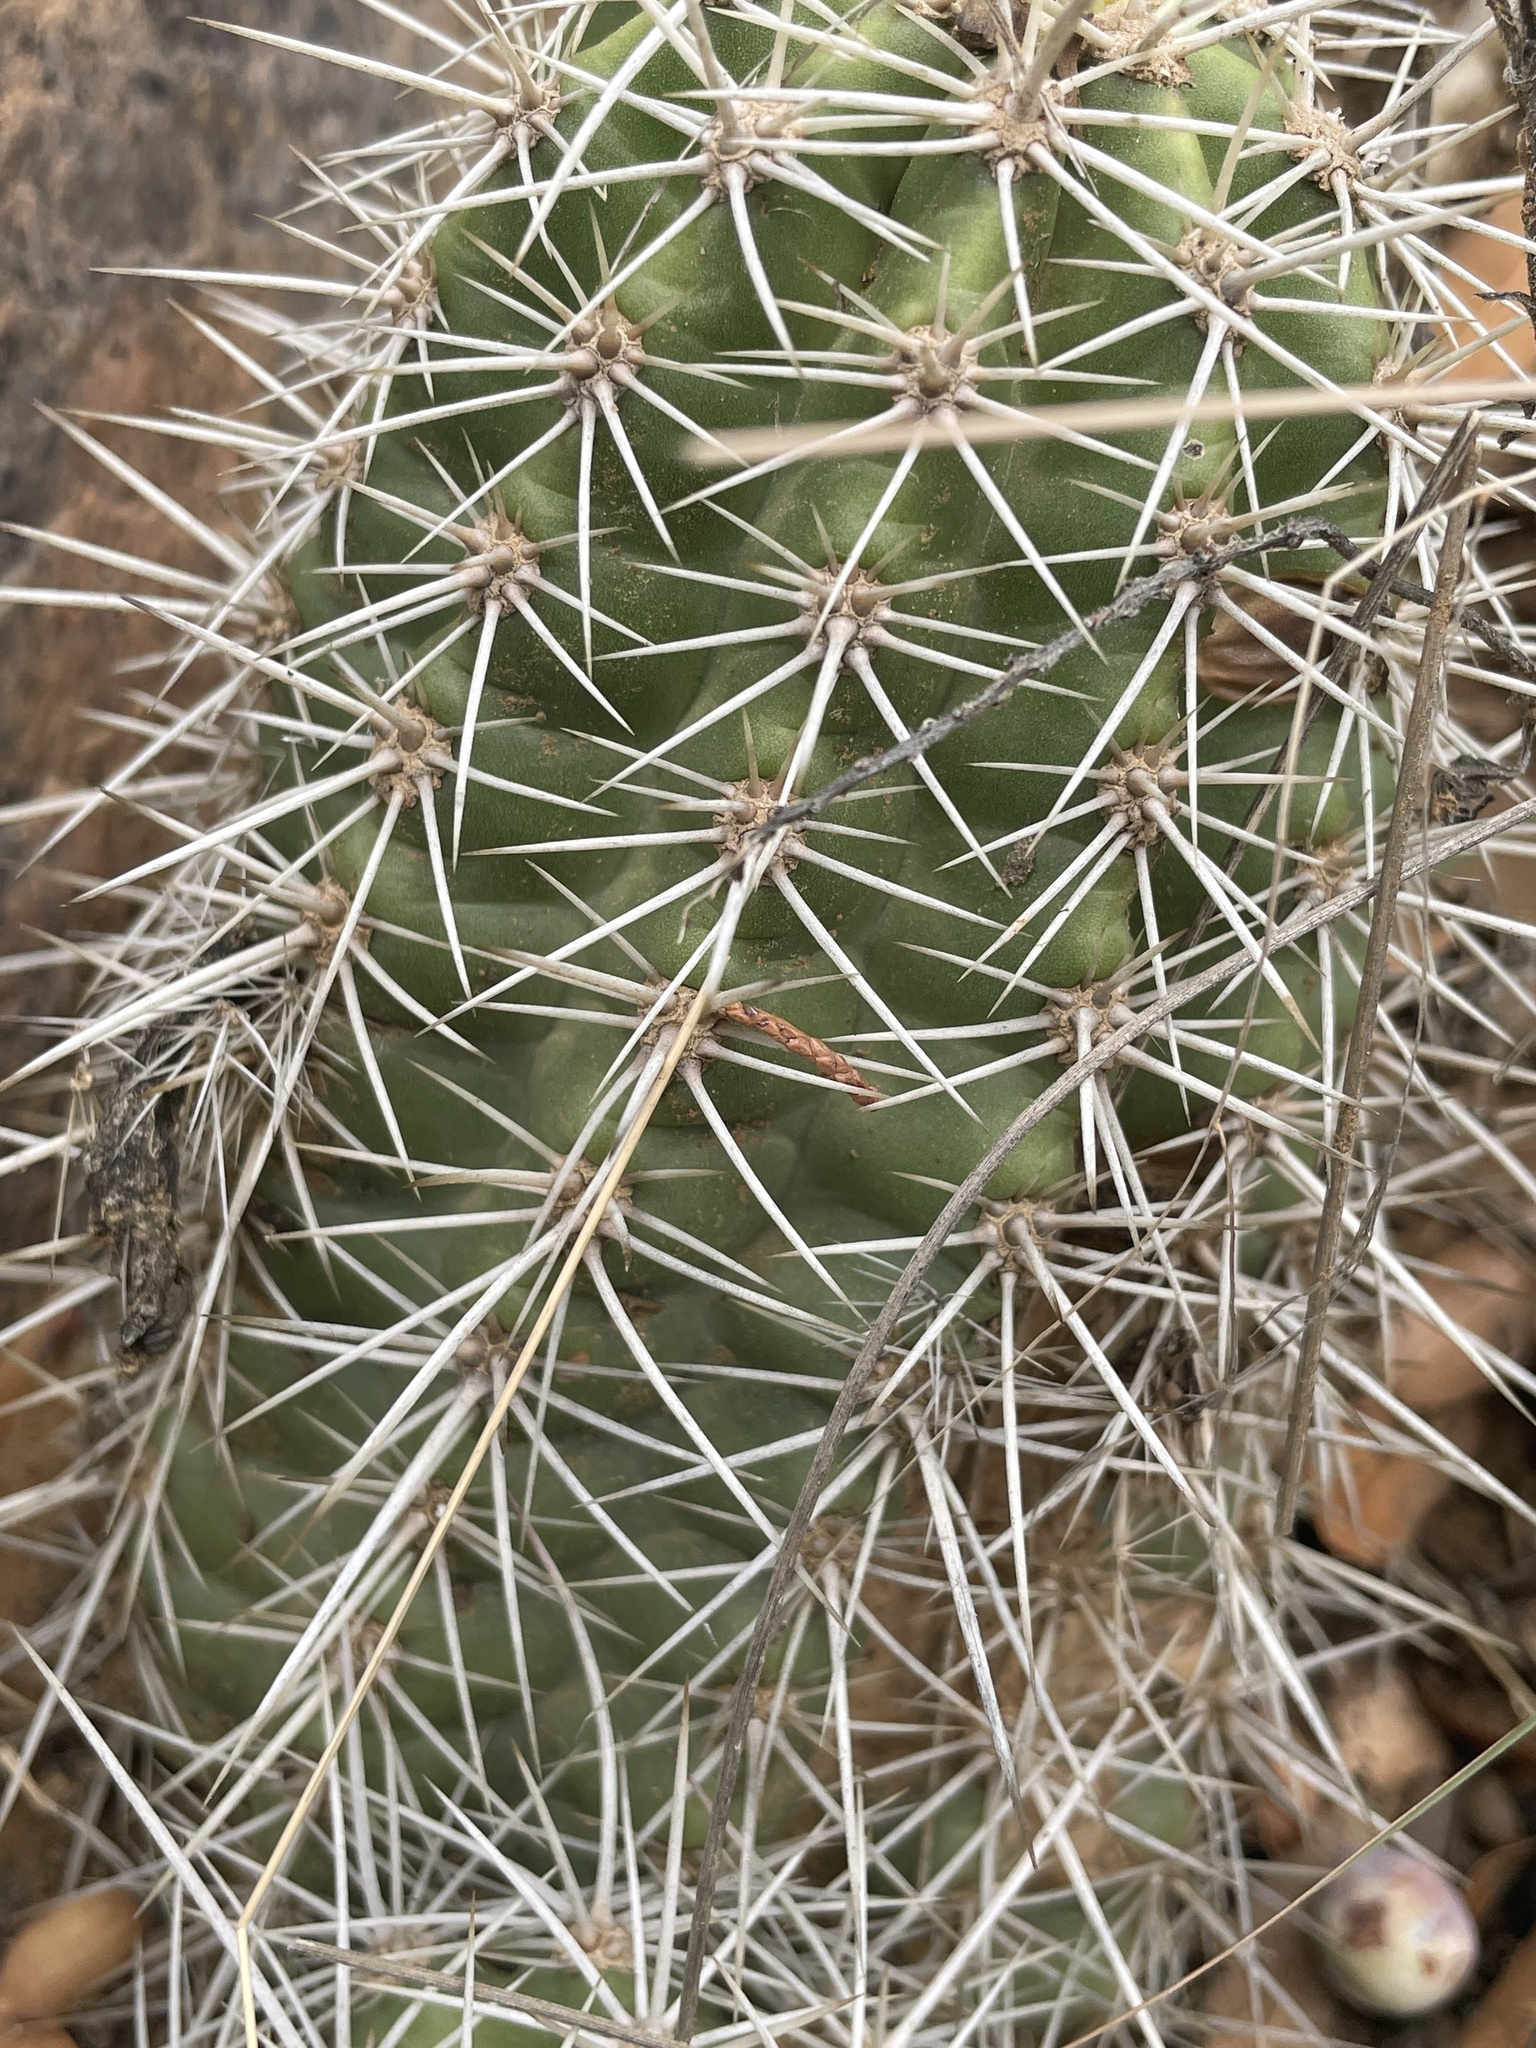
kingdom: Plantae
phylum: Tracheophyta
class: Magnoliopsida
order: Caryophyllales
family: Cactaceae
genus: Echinocereus
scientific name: Echinocereus bakeri
